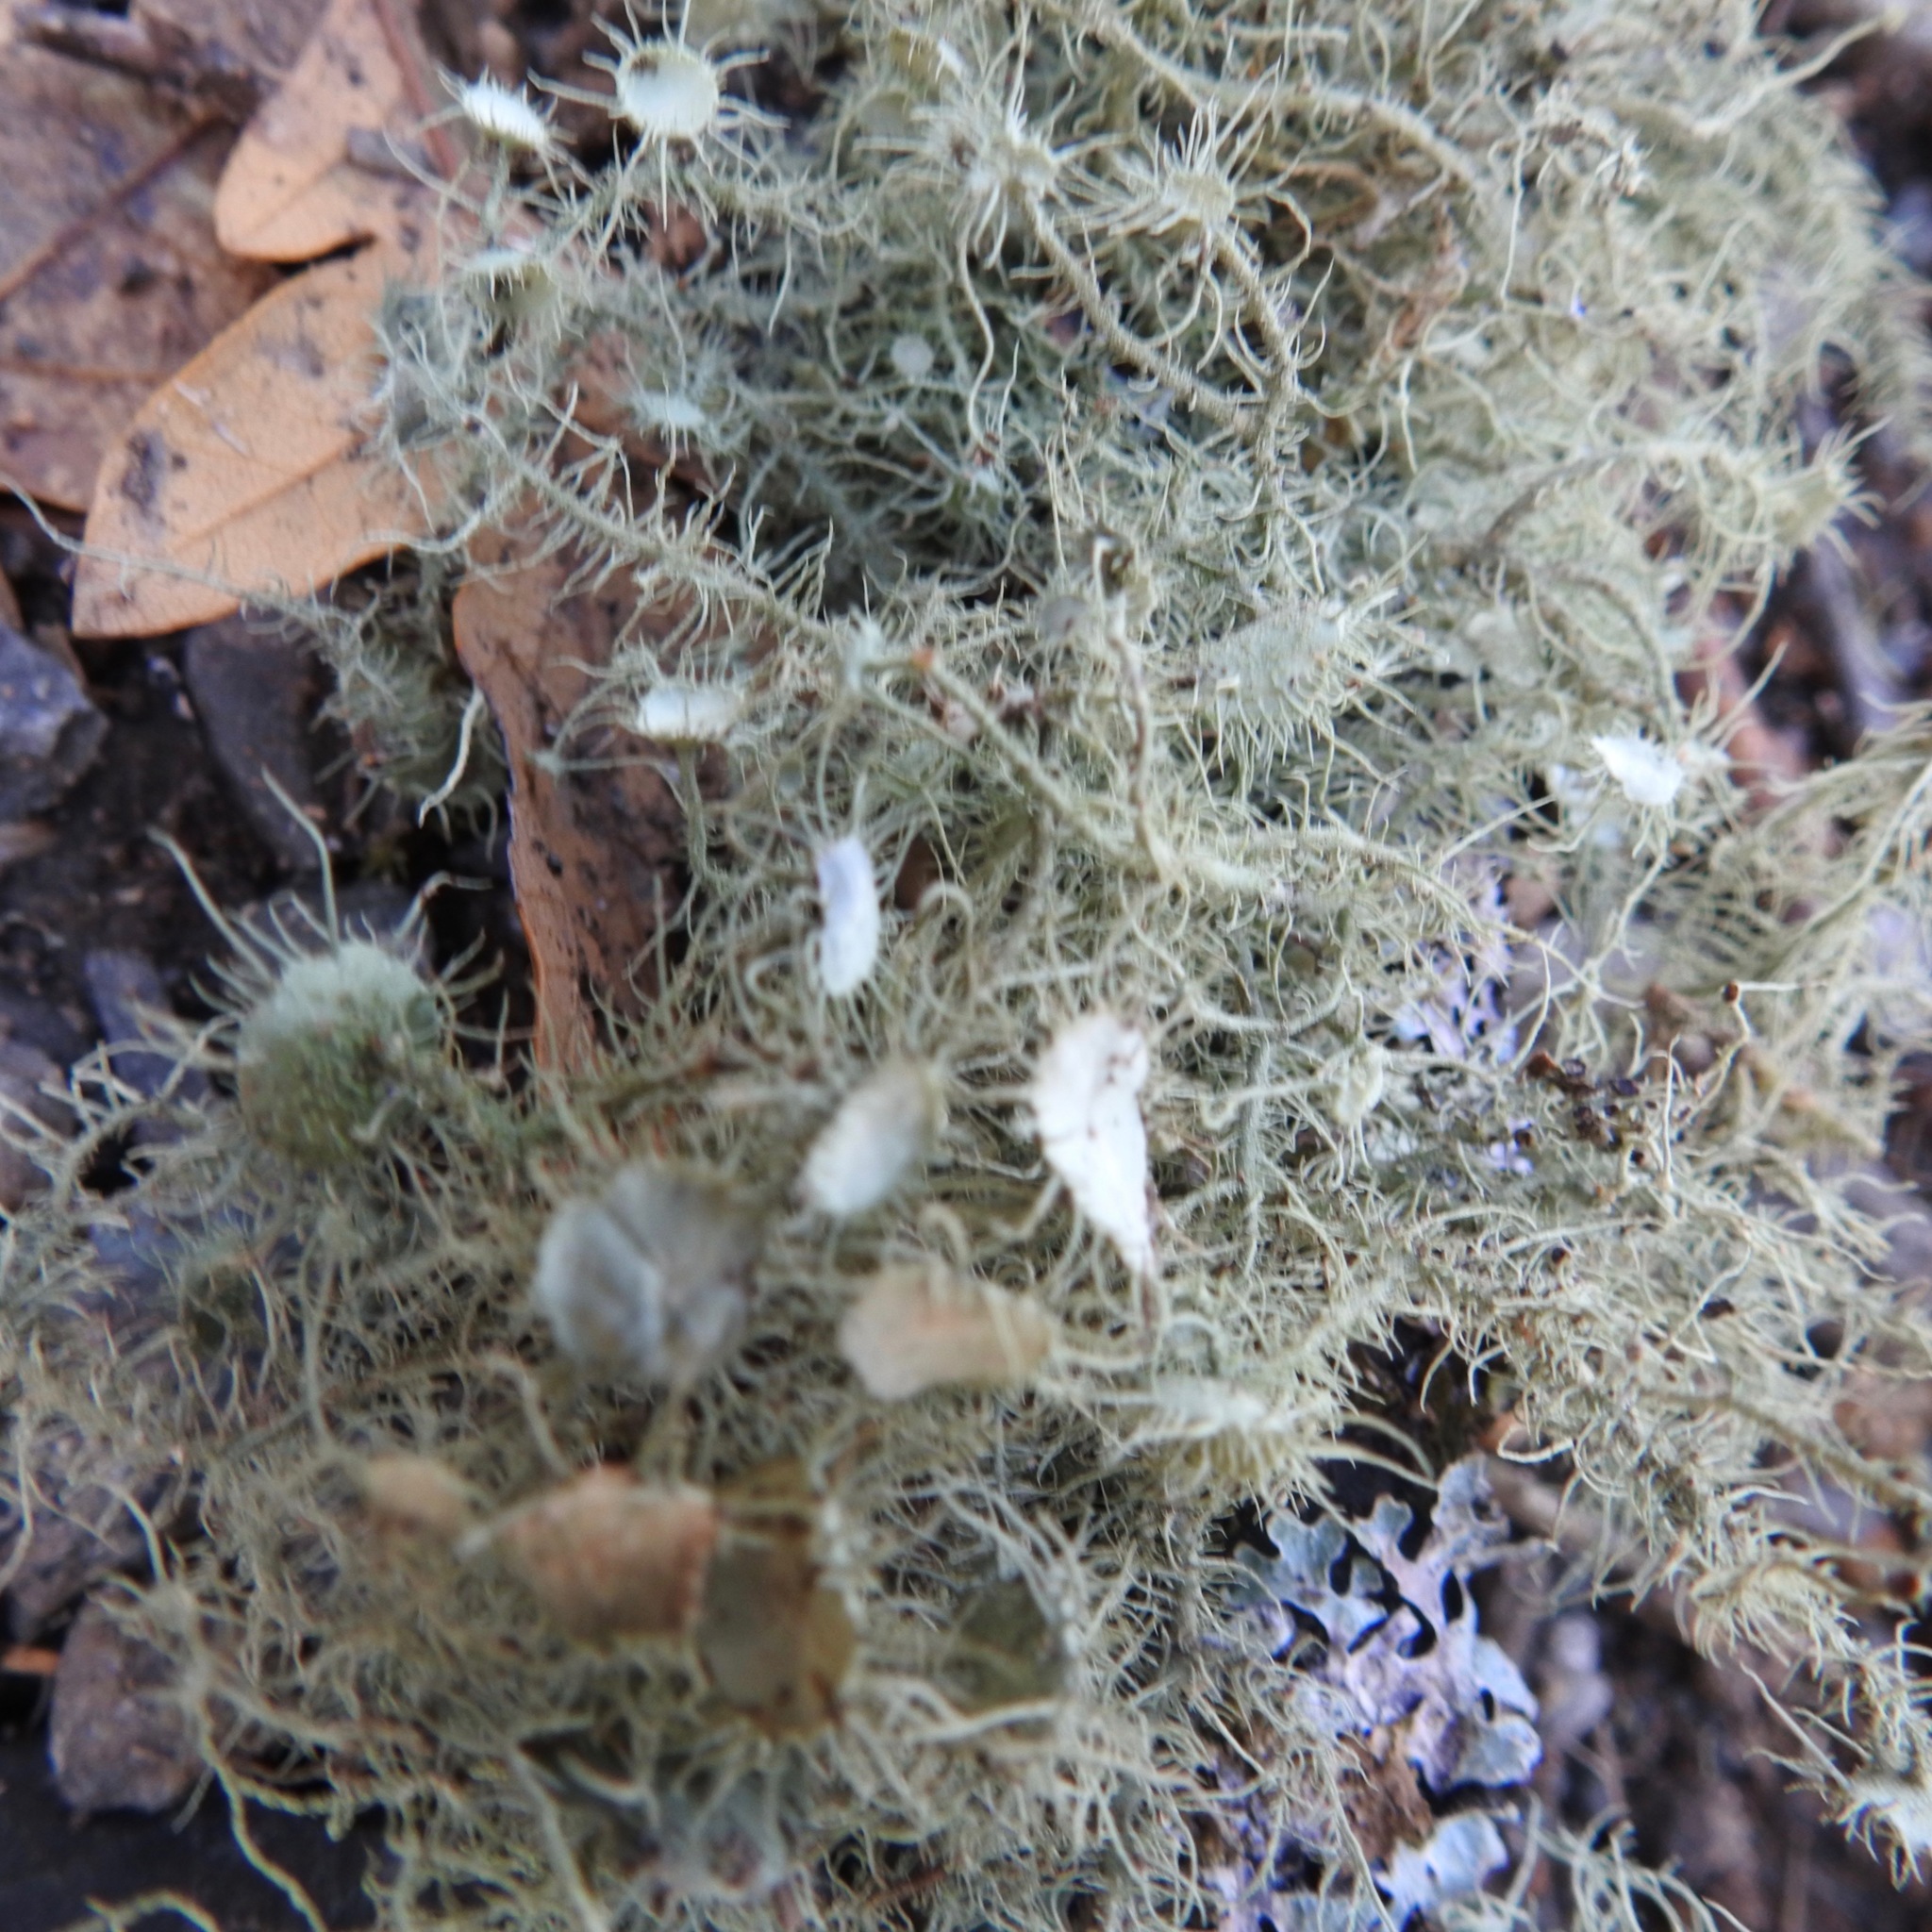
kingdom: Fungi
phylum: Ascomycota
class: Lecanoromycetes
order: Lecanorales
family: Parmeliaceae
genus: Usnea
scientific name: Usnea intermedia
